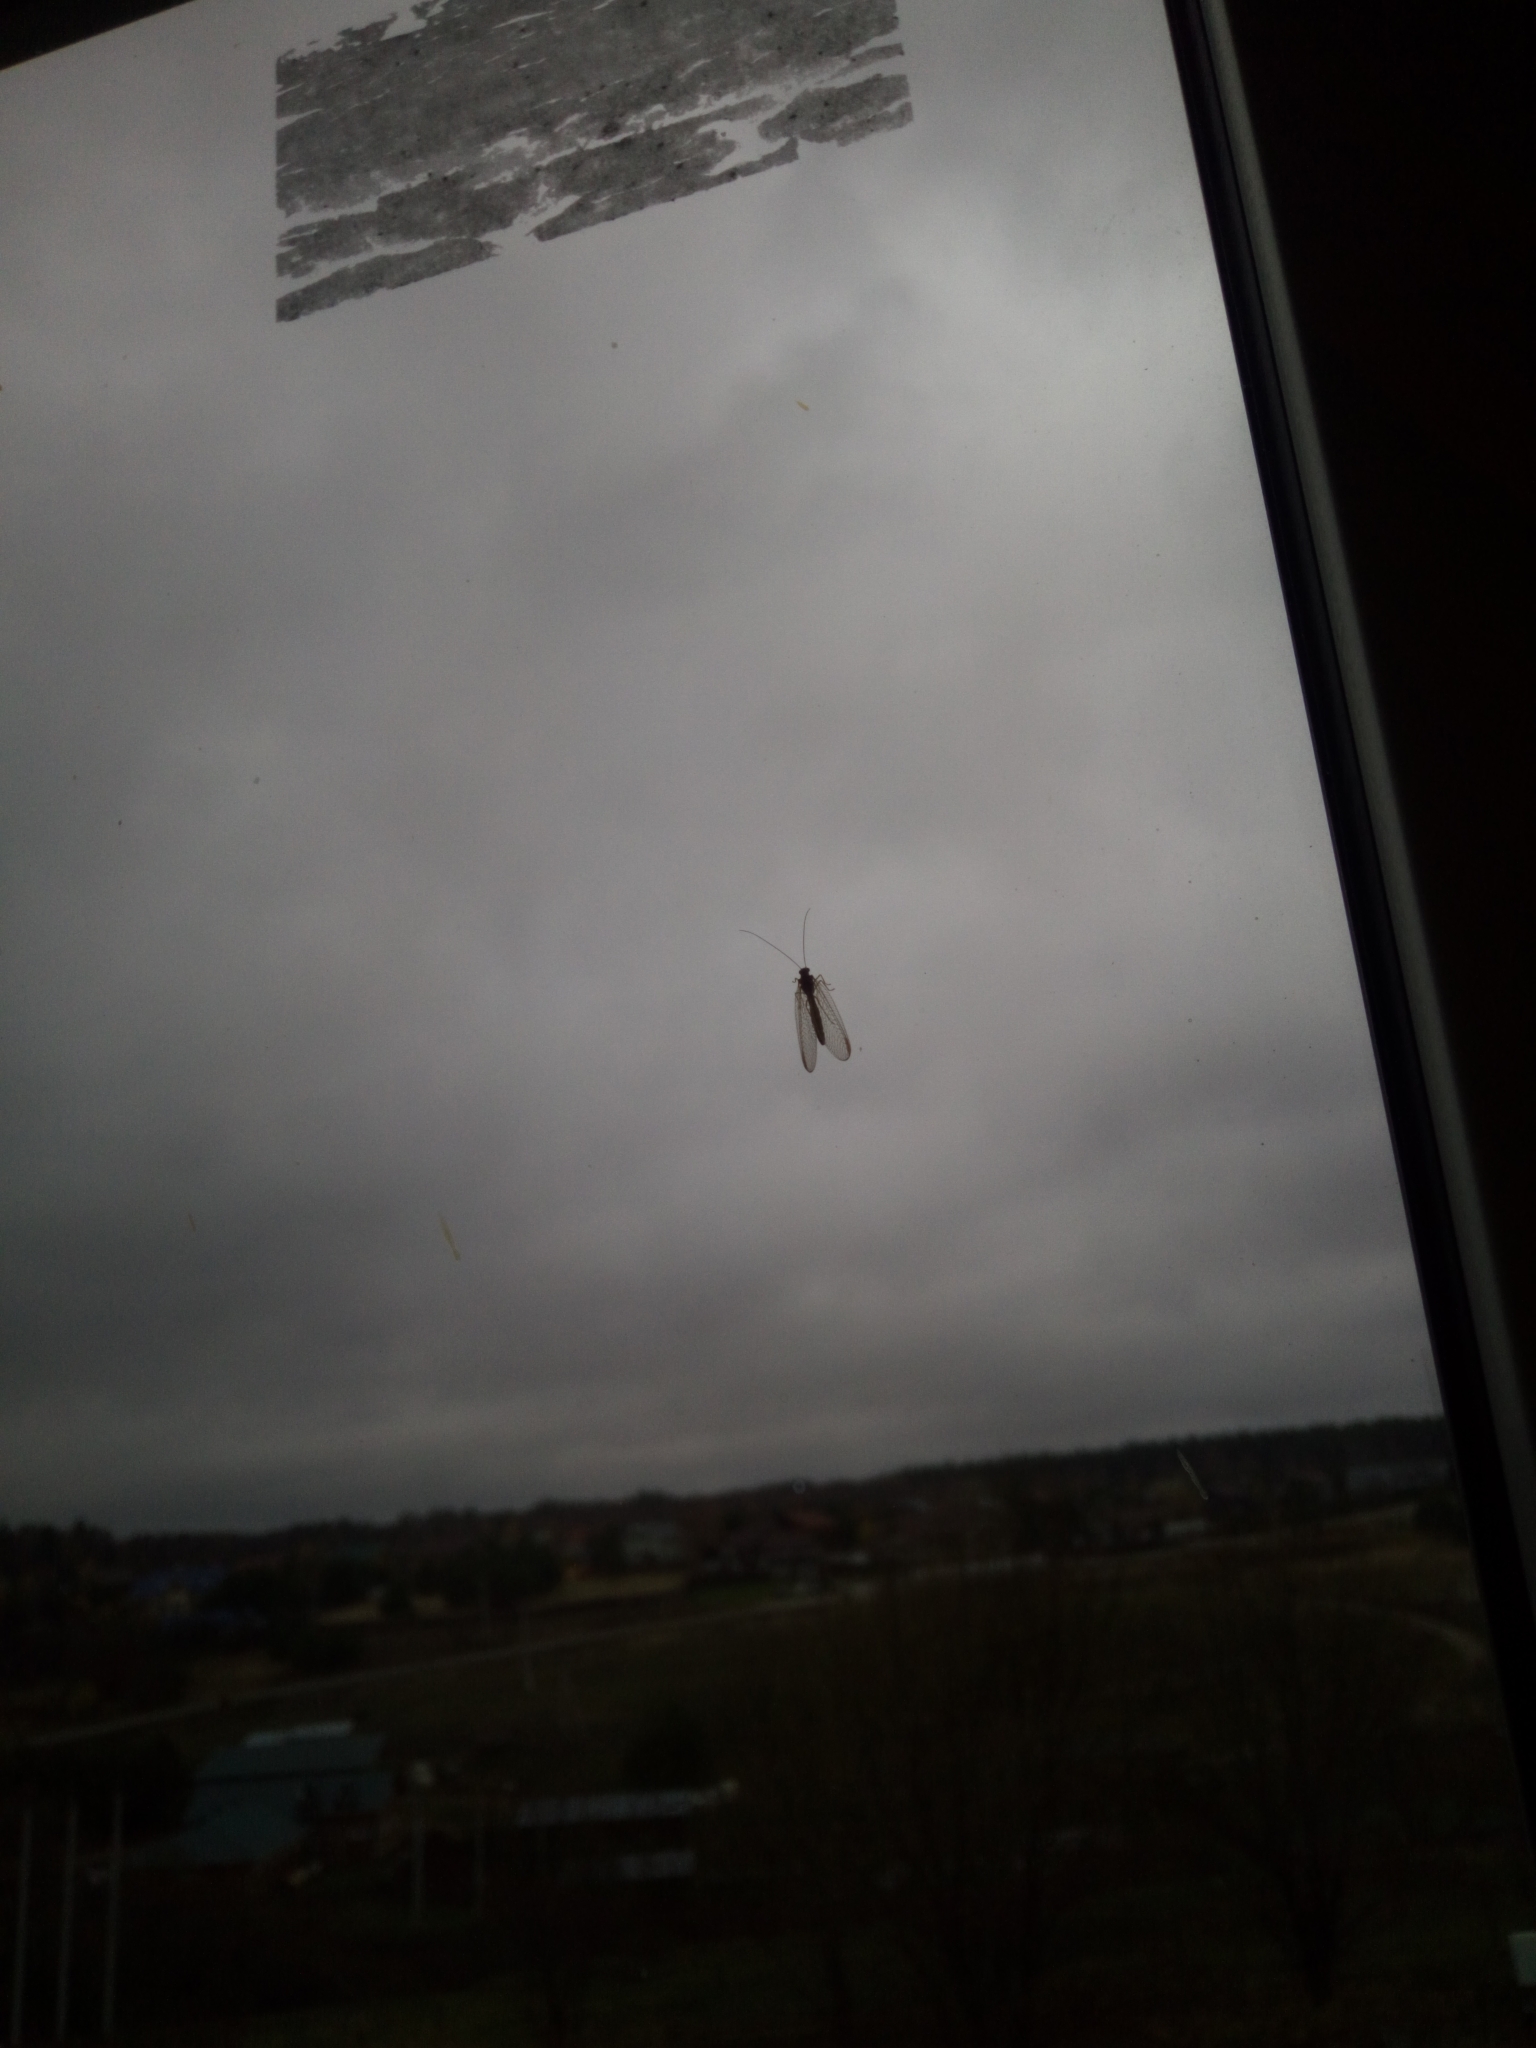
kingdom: Animalia
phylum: Arthropoda
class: Insecta
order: Neuroptera
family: Chrysopidae
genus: Chrysoperla
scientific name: Chrysoperla
